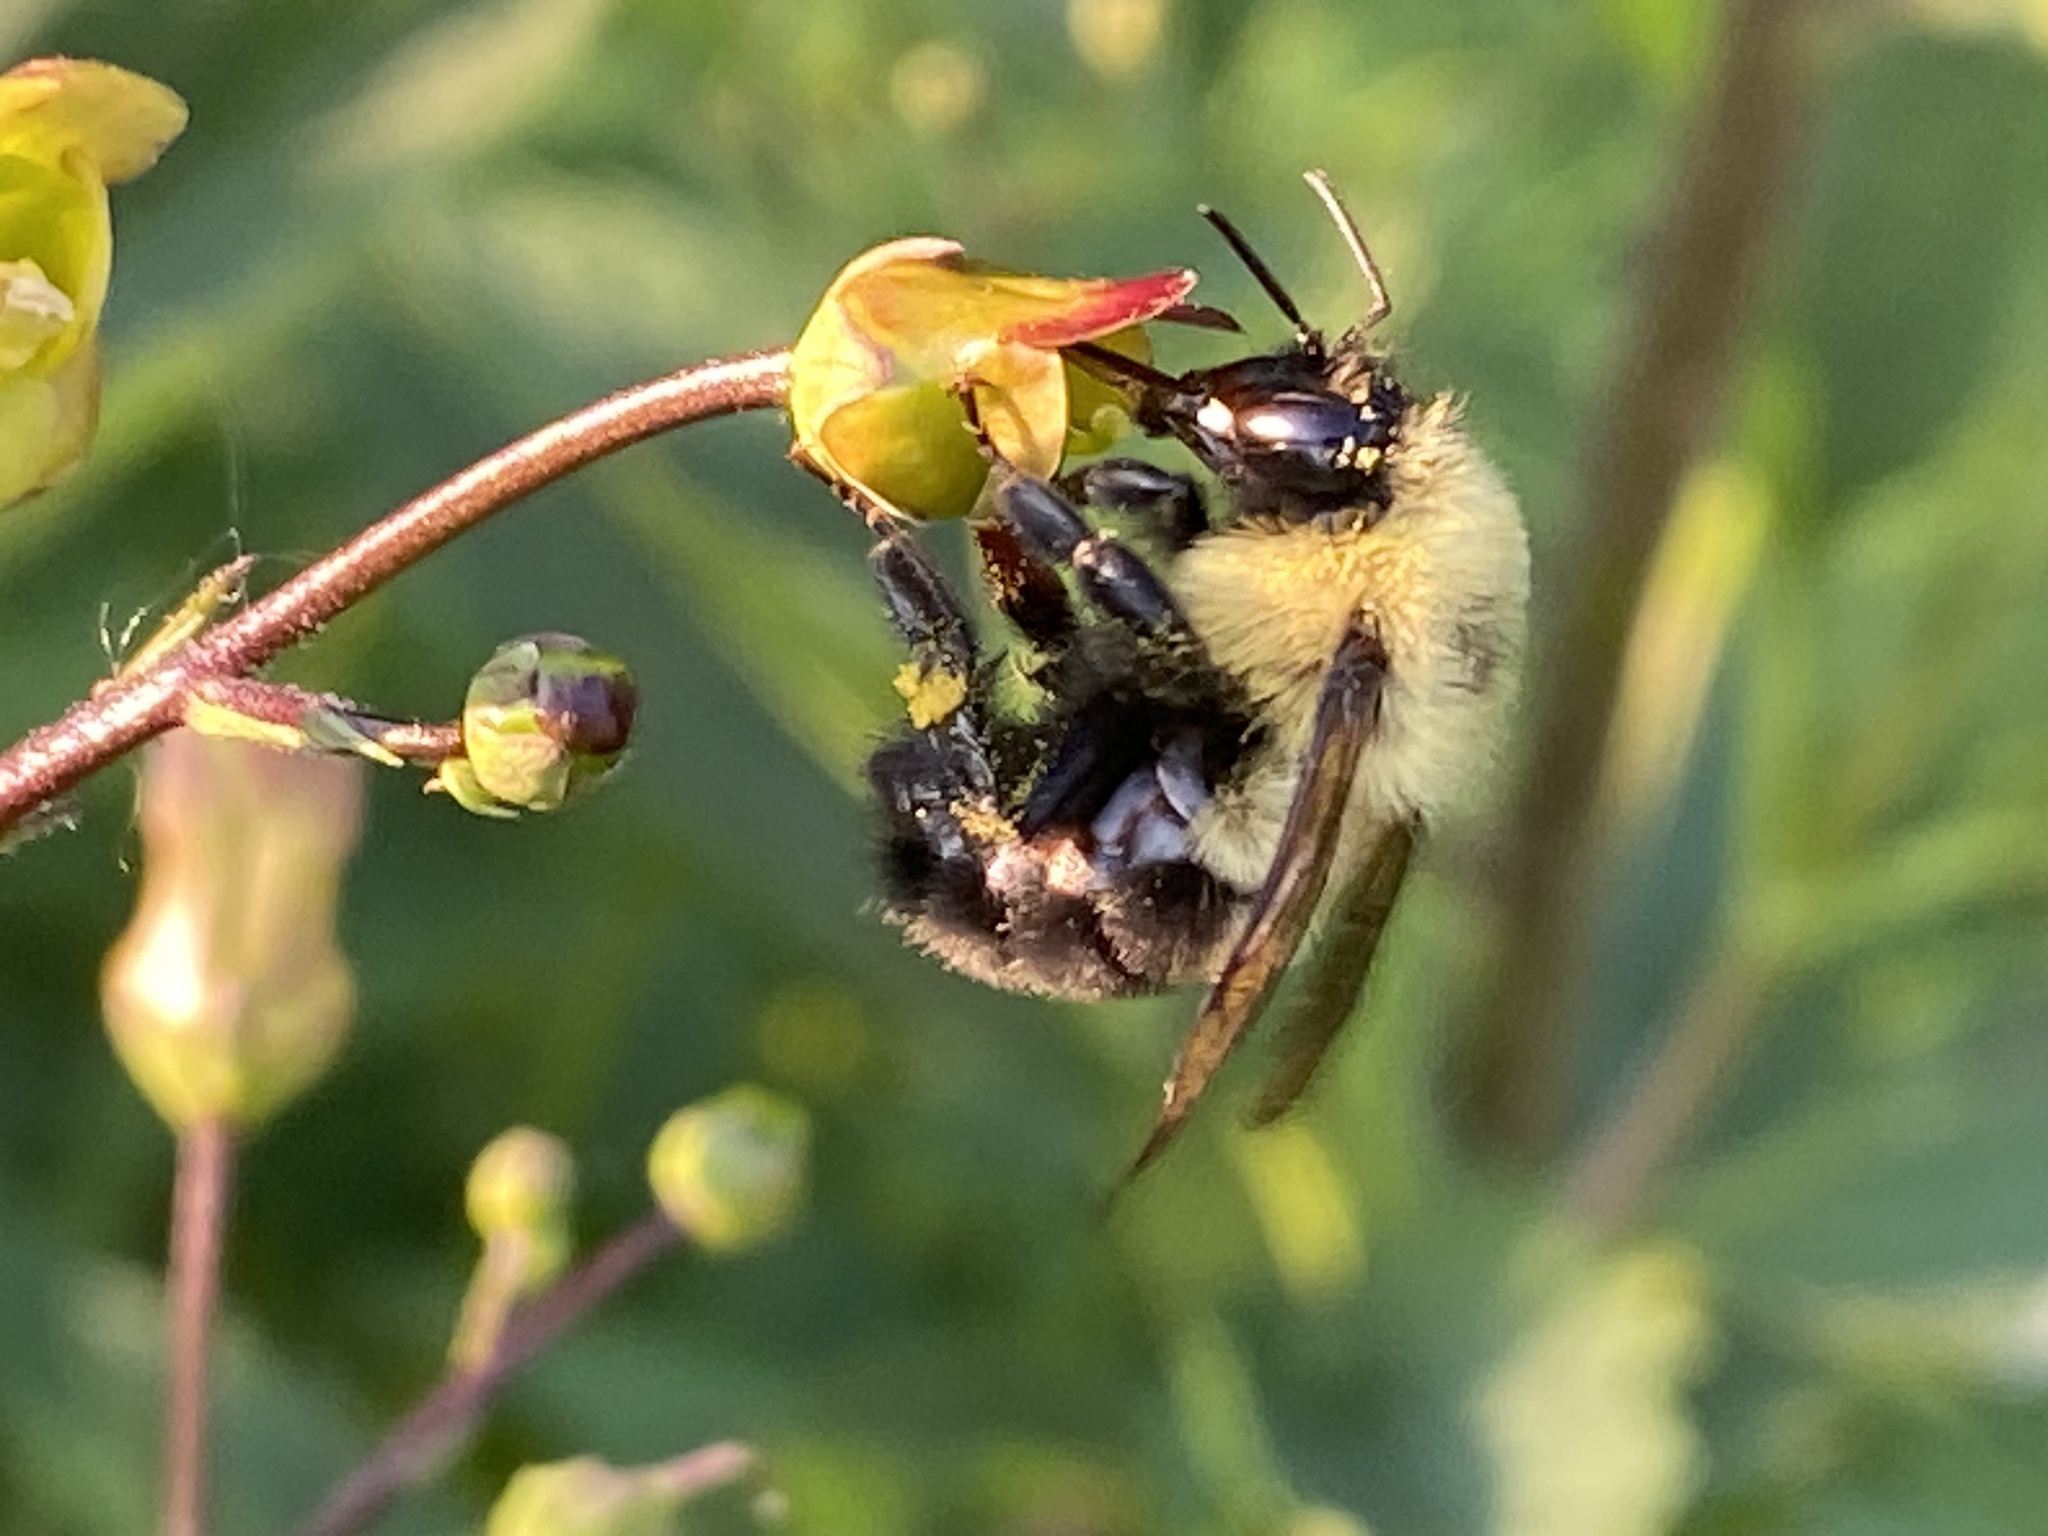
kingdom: Animalia
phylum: Arthropoda
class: Insecta
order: Hymenoptera
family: Apidae
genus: Bombus
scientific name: Bombus bimaculatus
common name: Two-spotted bumble bee
